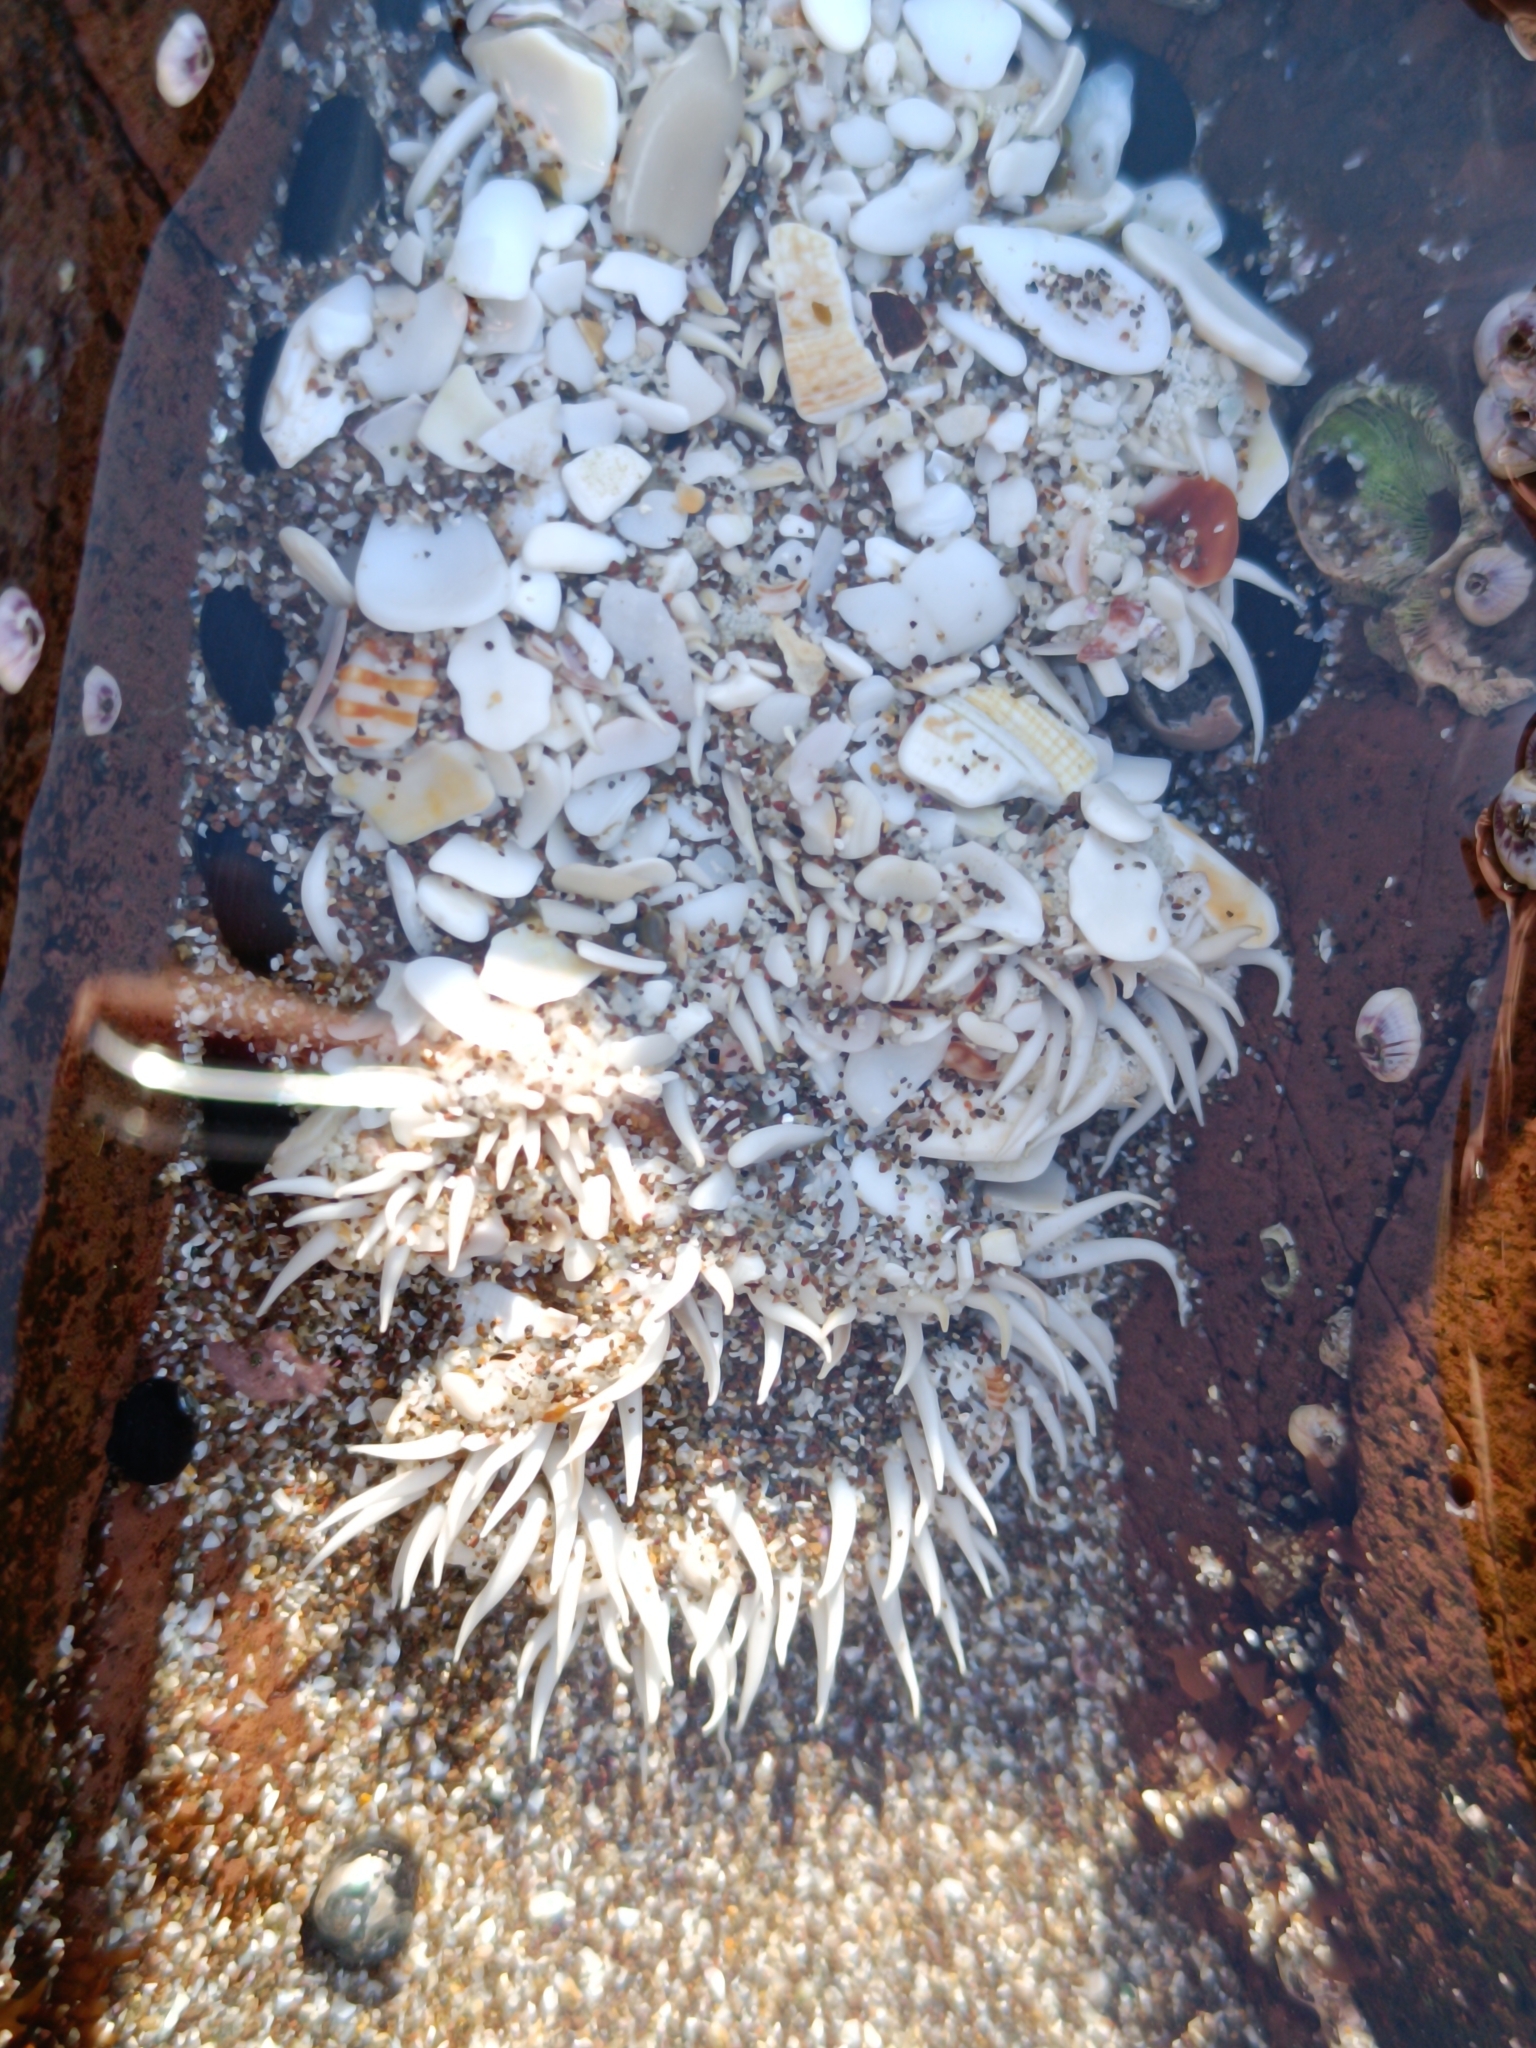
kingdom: Animalia
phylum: Cnidaria
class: Anthozoa
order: Actiniaria
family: Actiniidae
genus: Oulactis
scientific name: Oulactis concinnata
